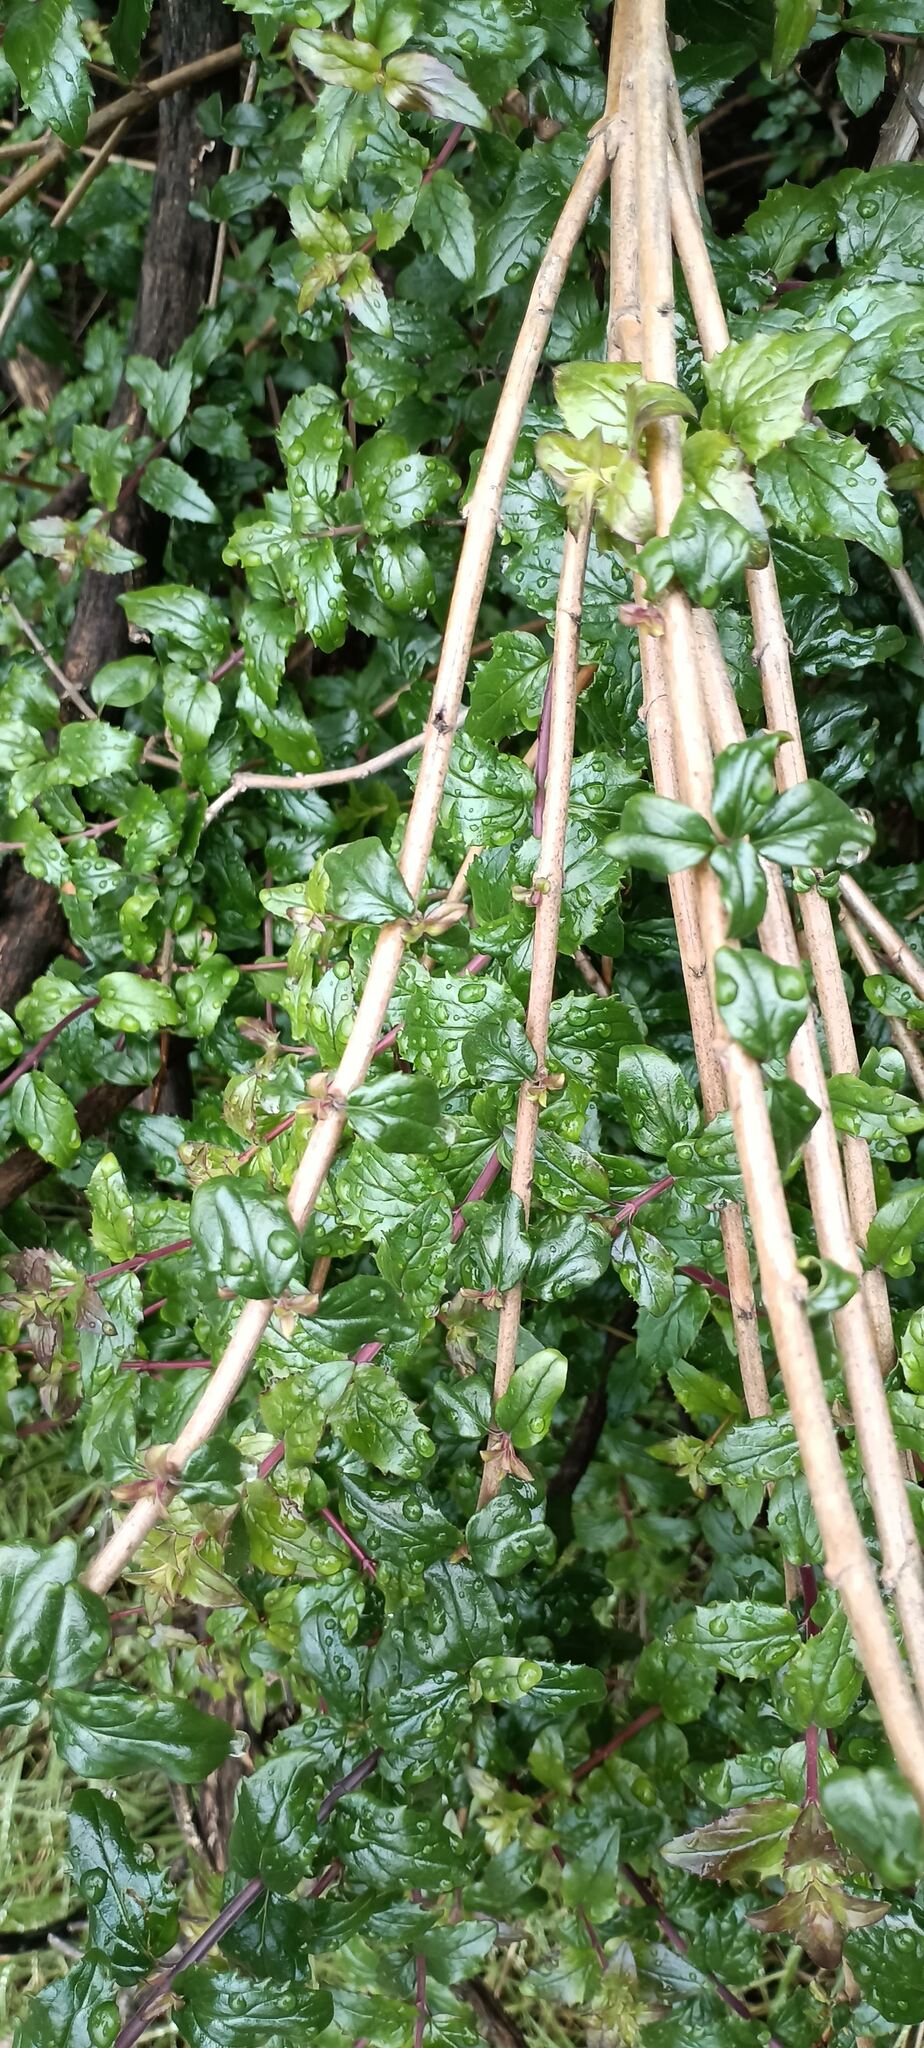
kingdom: Plantae
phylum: Tracheophyta
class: Magnoliopsida
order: Lamiales
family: Plantaginaceae
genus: Keckiella
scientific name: Keckiella cordifolia
